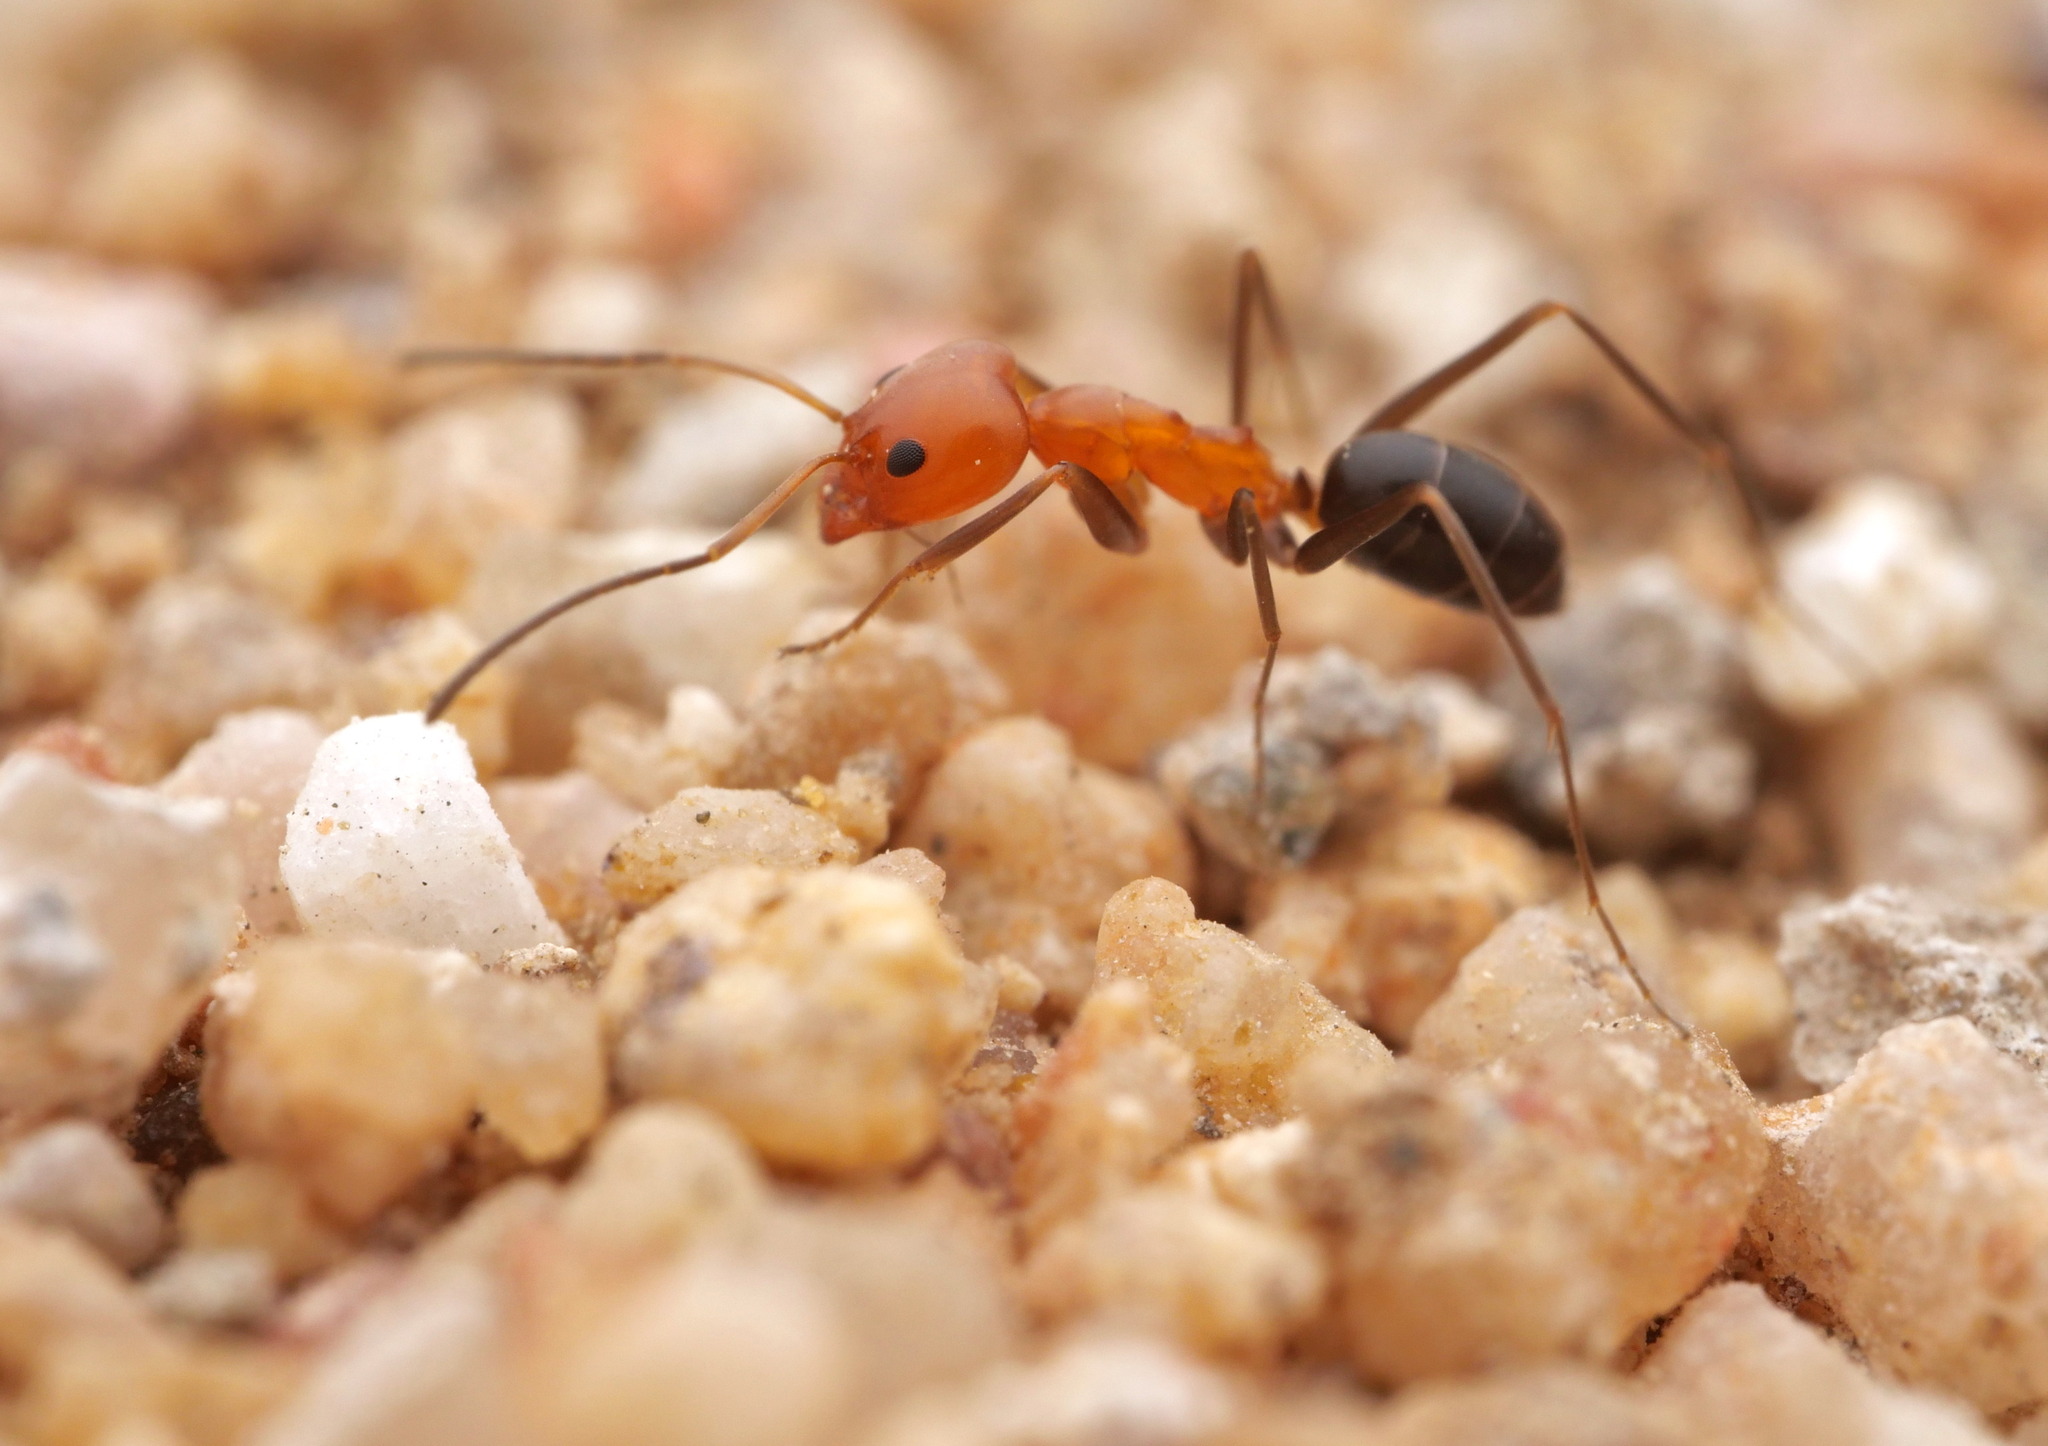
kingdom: Animalia
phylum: Arthropoda
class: Insecta
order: Hymenoptera
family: Formicidae
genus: Dorymyrmex
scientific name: Dorymyrmex bicolor
